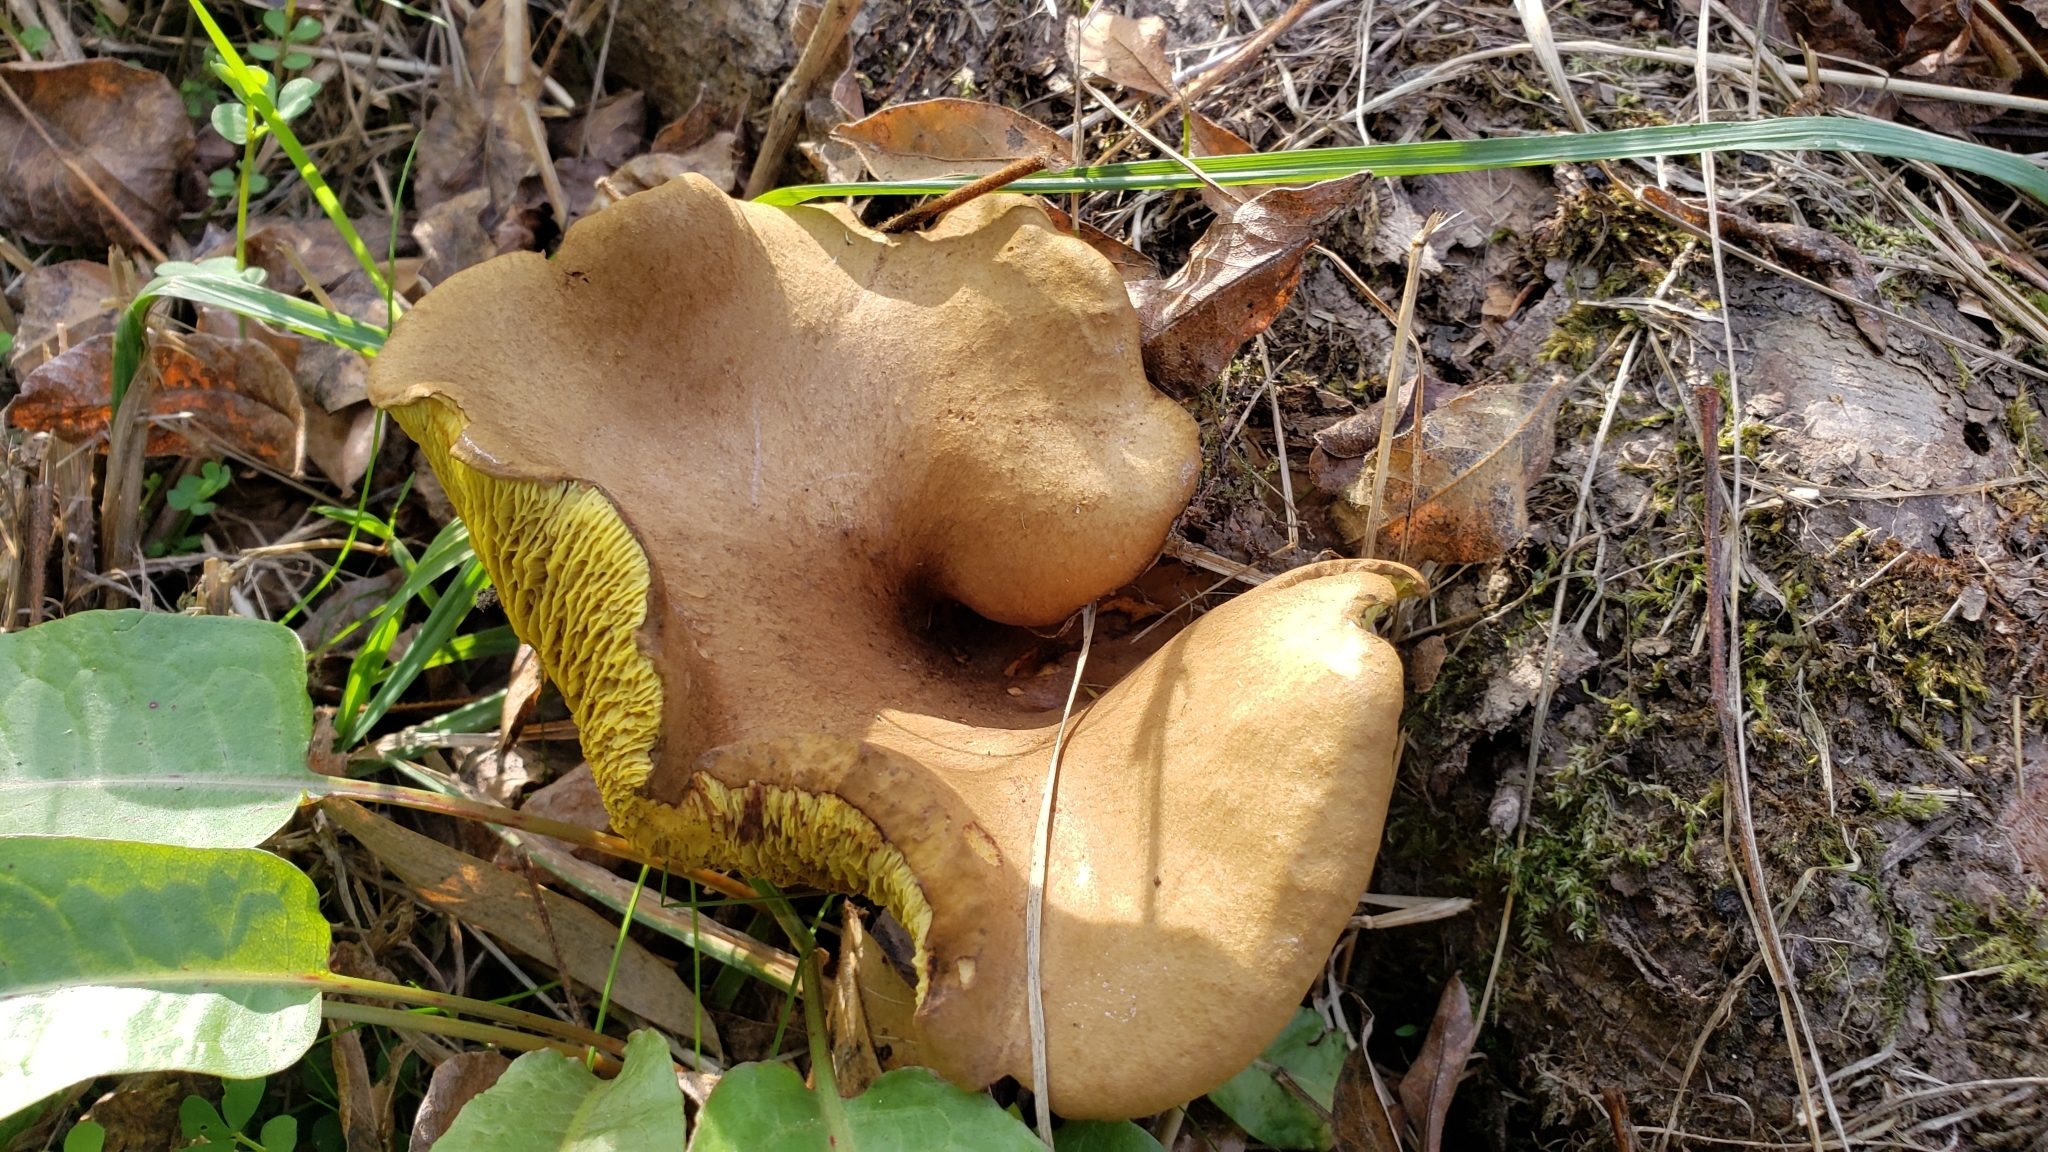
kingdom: Fungi
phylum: Basidiomycota
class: Agaricomycetes
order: Boletales
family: Boletinellaceae
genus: Boletinellus
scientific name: Boletinellus merulioides
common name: Ash tree bolete
